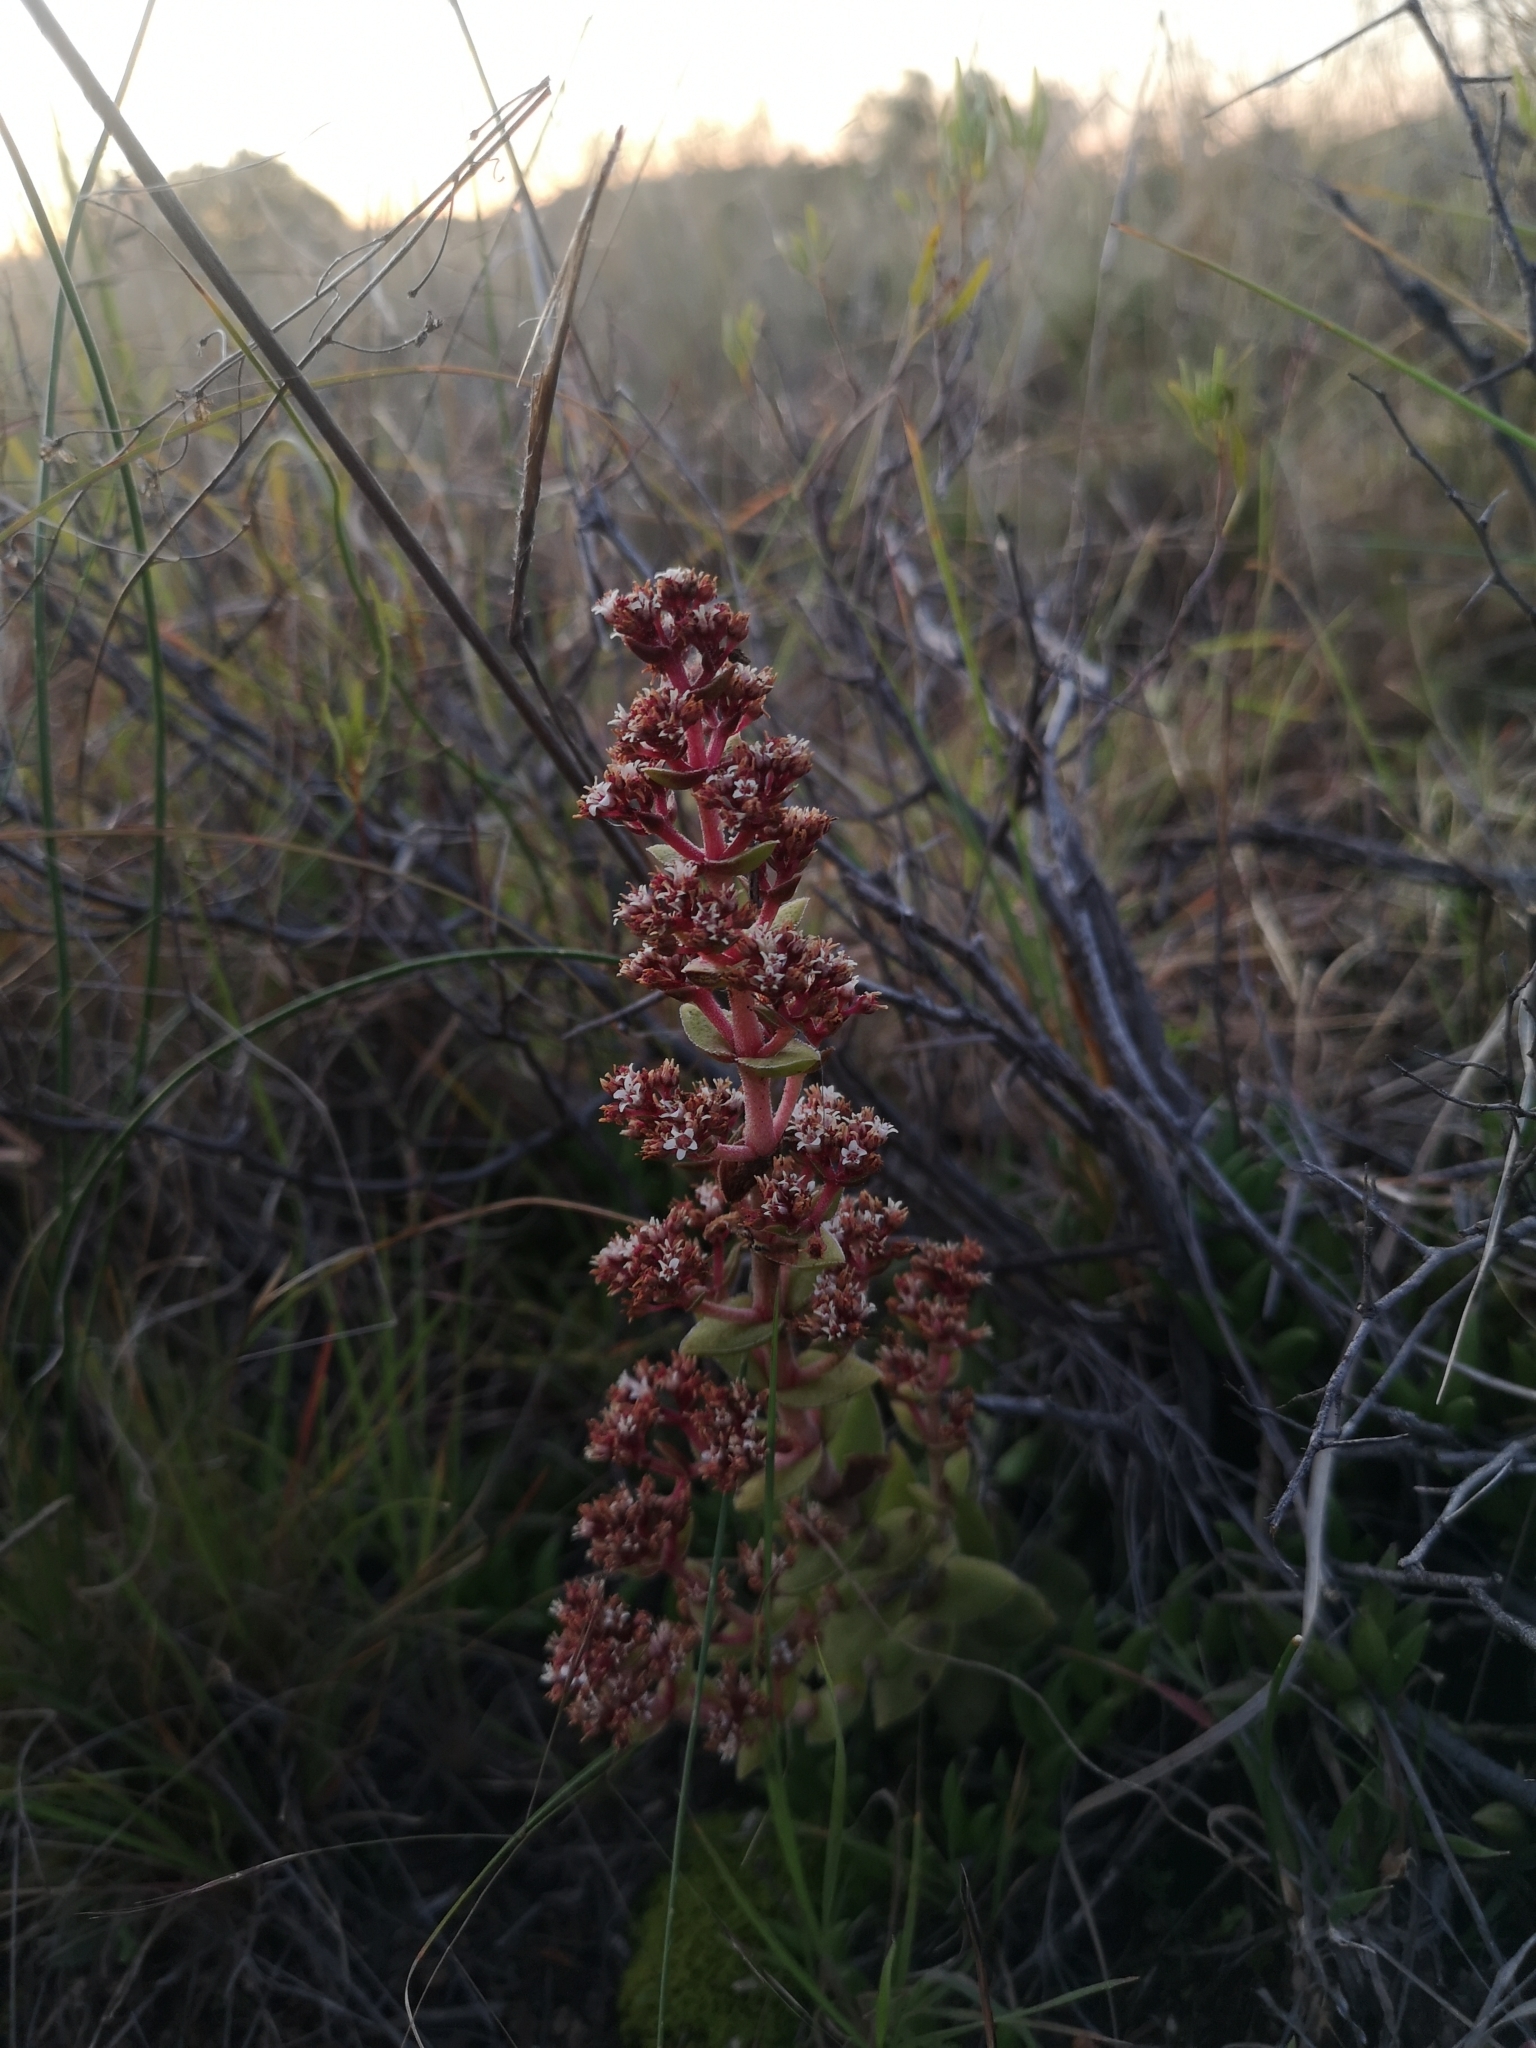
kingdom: Plantae
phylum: Tracheophyta
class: Magnoliopsida
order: Saxifragales
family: Crassulaceae
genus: Crassula
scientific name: Crassula capitella
